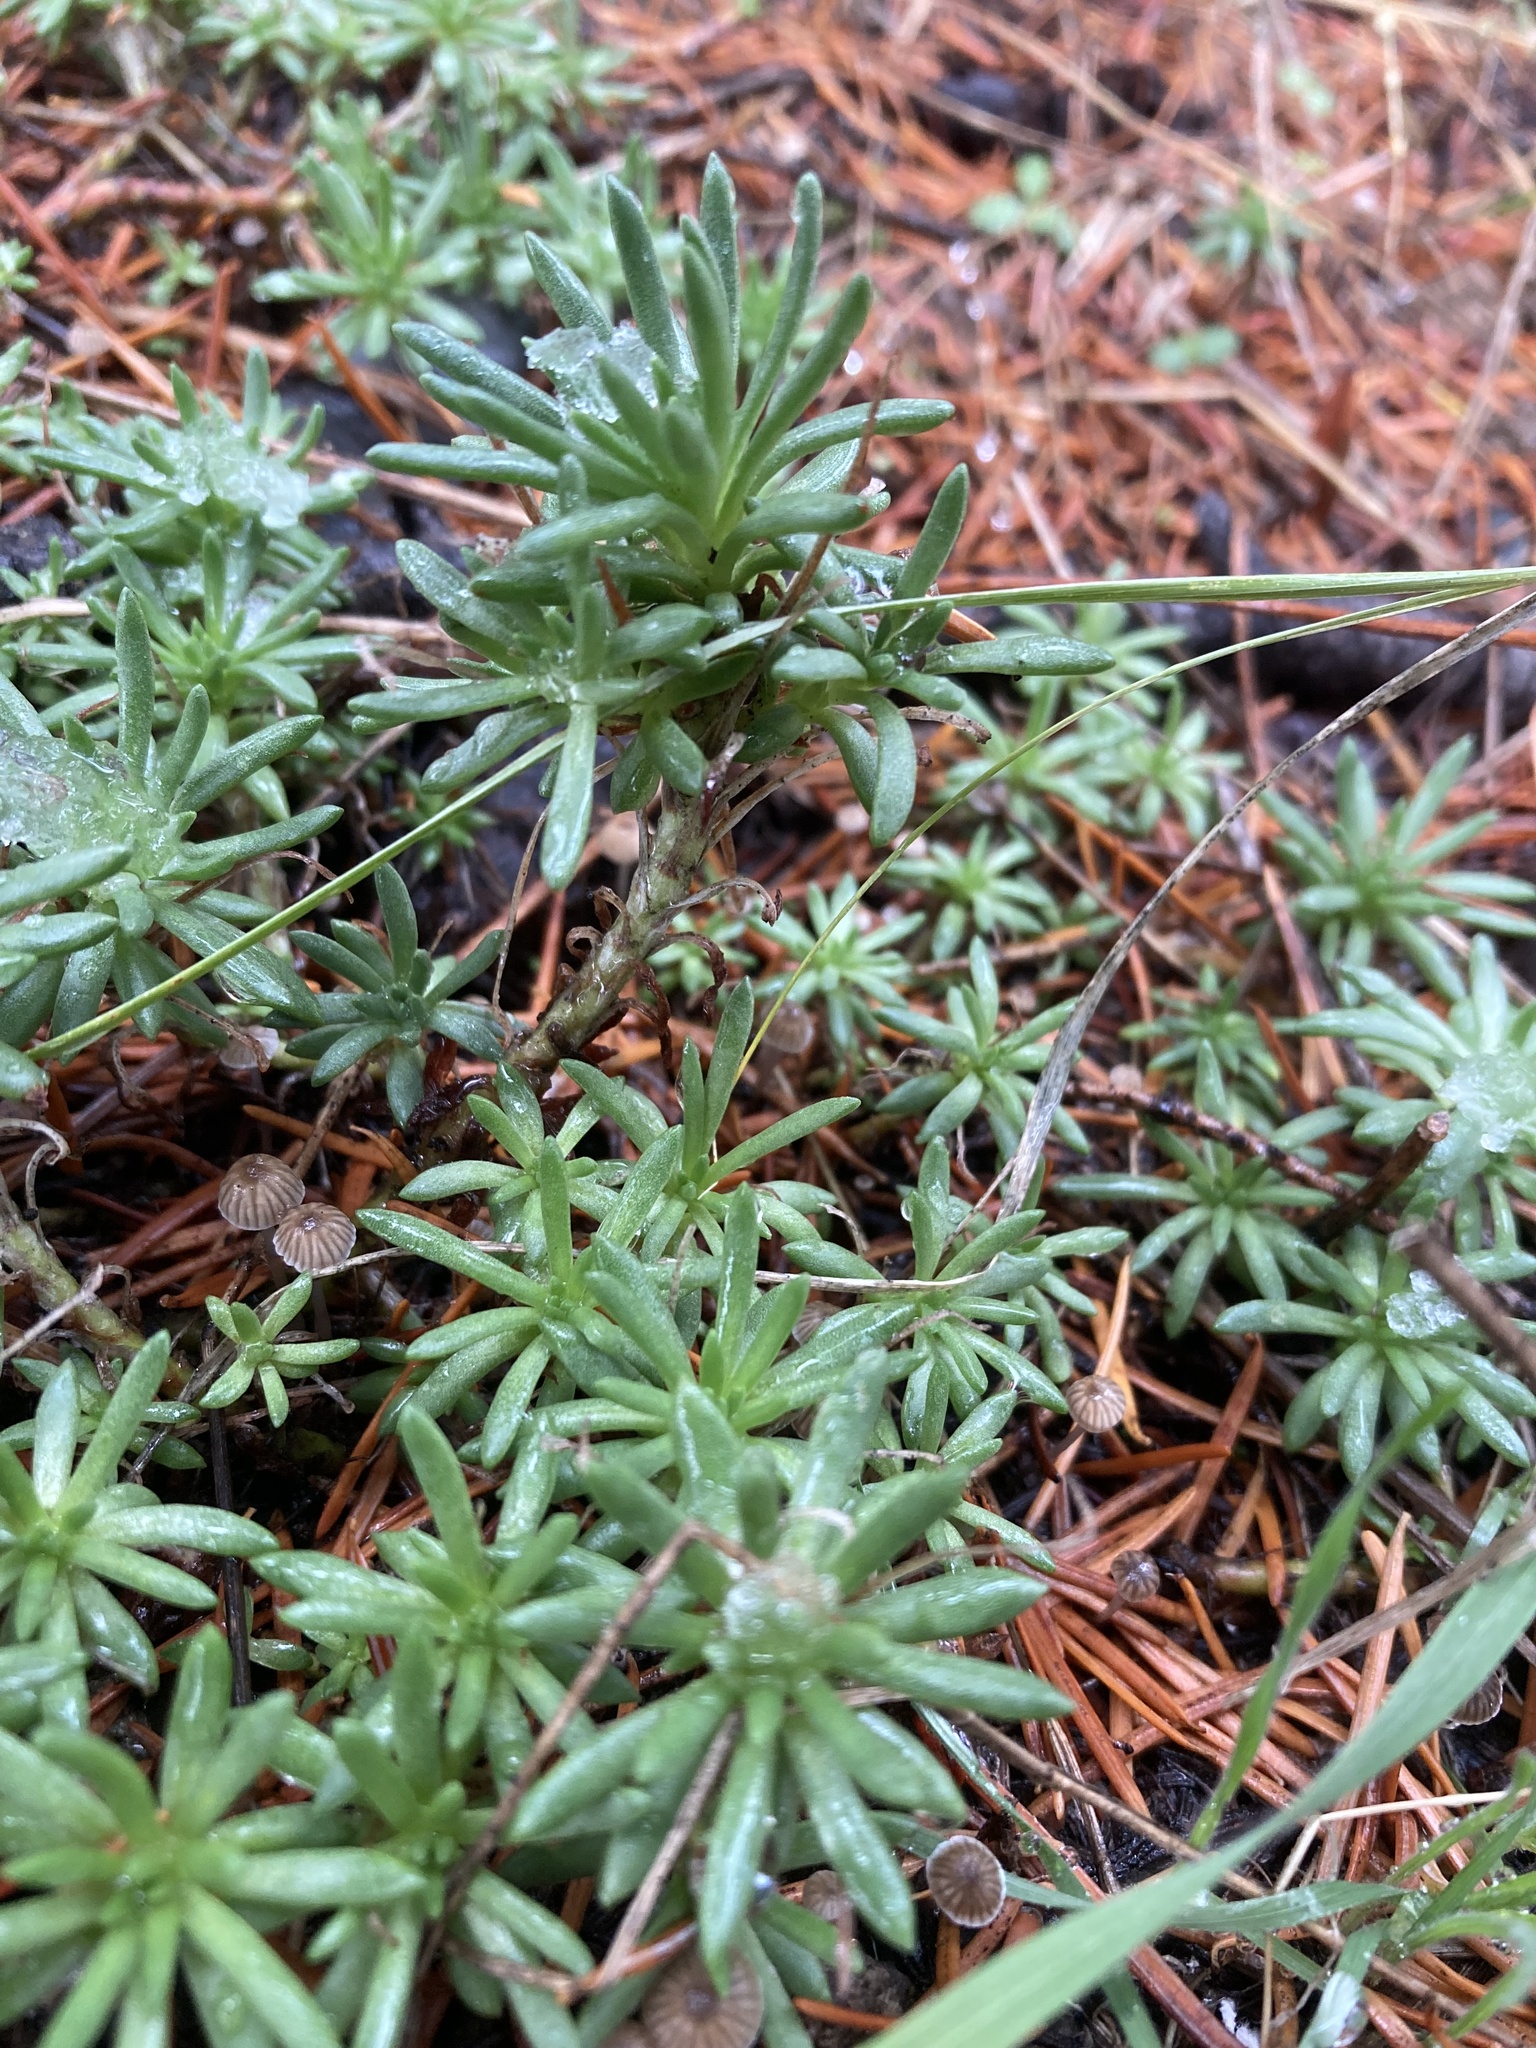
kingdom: Plantae
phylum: Tracheophyta
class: Magnoliopsida
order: Saxifragales
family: Crassulaceae
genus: Sedum
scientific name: Sedum stenopetalum
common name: Narrow-petaled stonecrop
